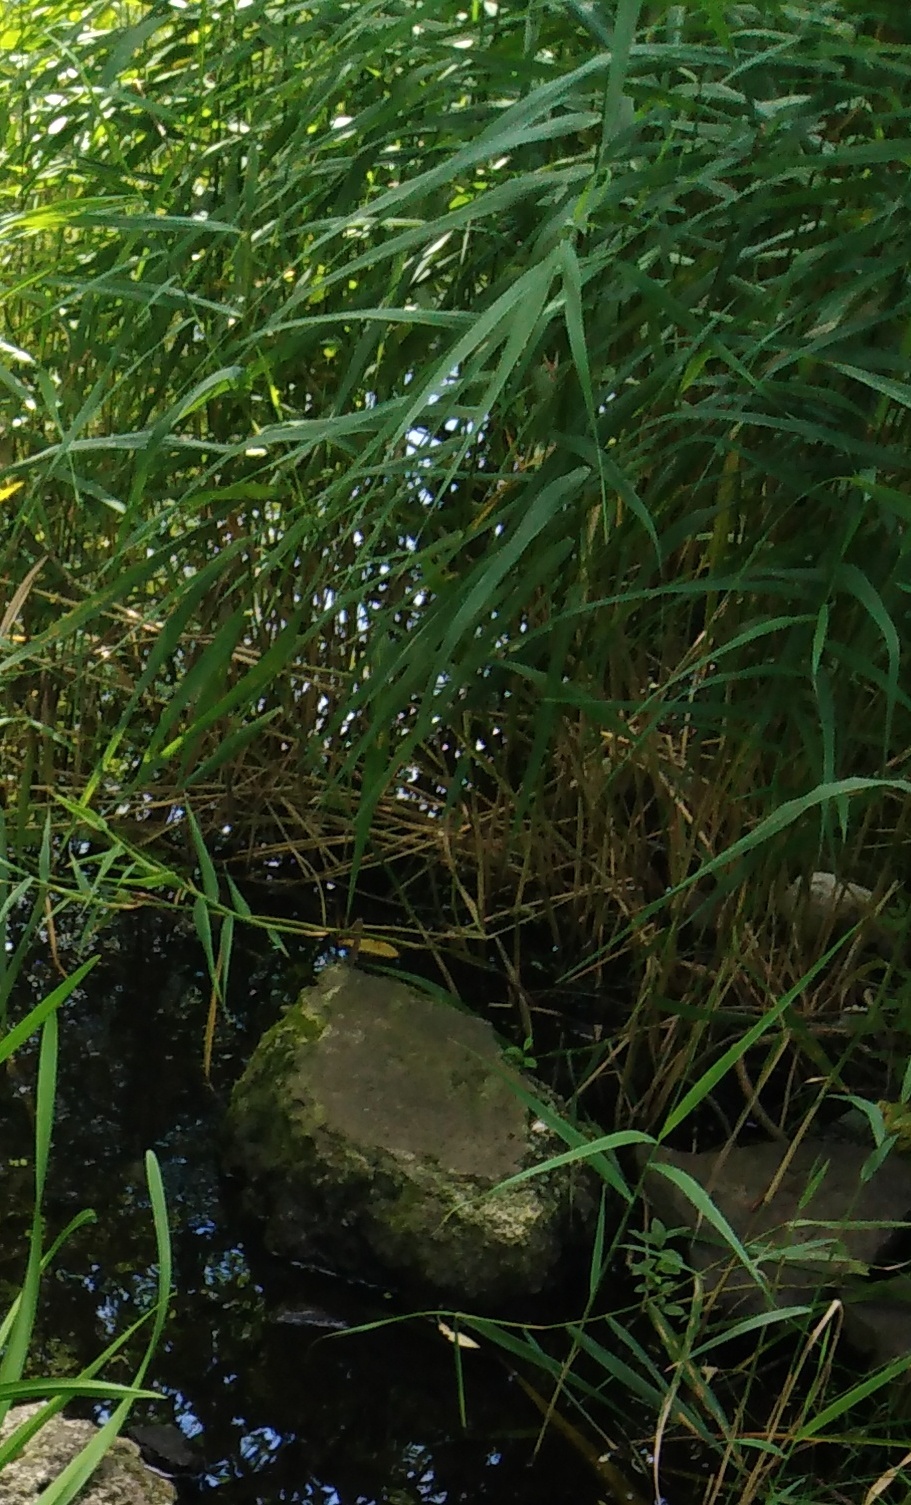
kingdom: Plantae
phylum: Tracheophyta
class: Liliopsida
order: Poales
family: Poaceae
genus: Phragmites
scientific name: Phragmites australis
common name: Common reed
